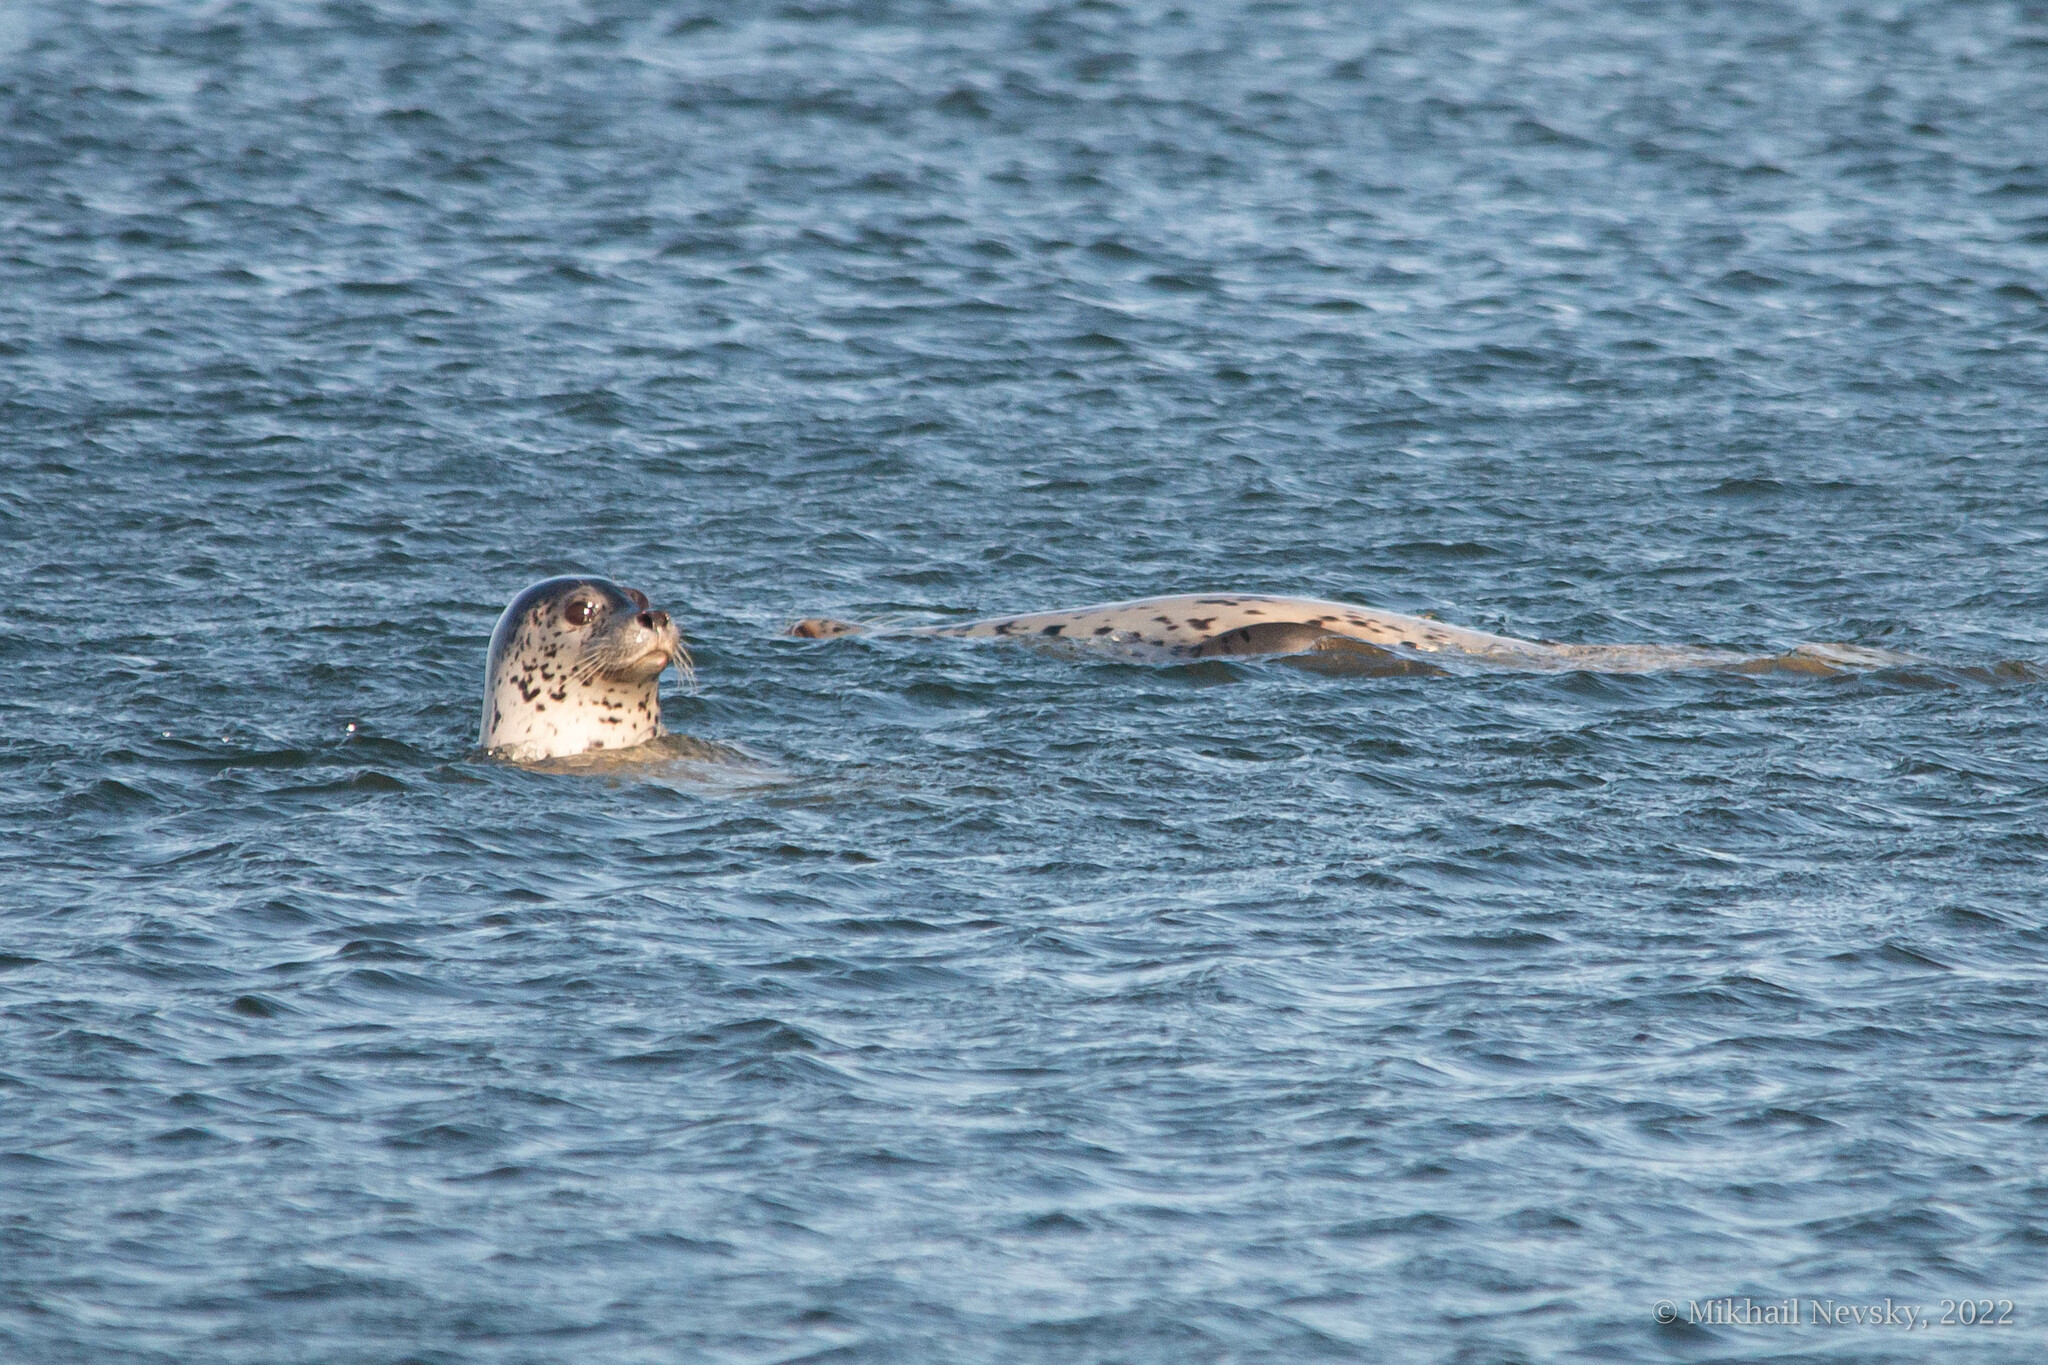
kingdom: Animalia
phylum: Chordata
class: Mammalia
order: Carnivora
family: Phocidae
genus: Phoca
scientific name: Phoca largha
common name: Spotted seal
